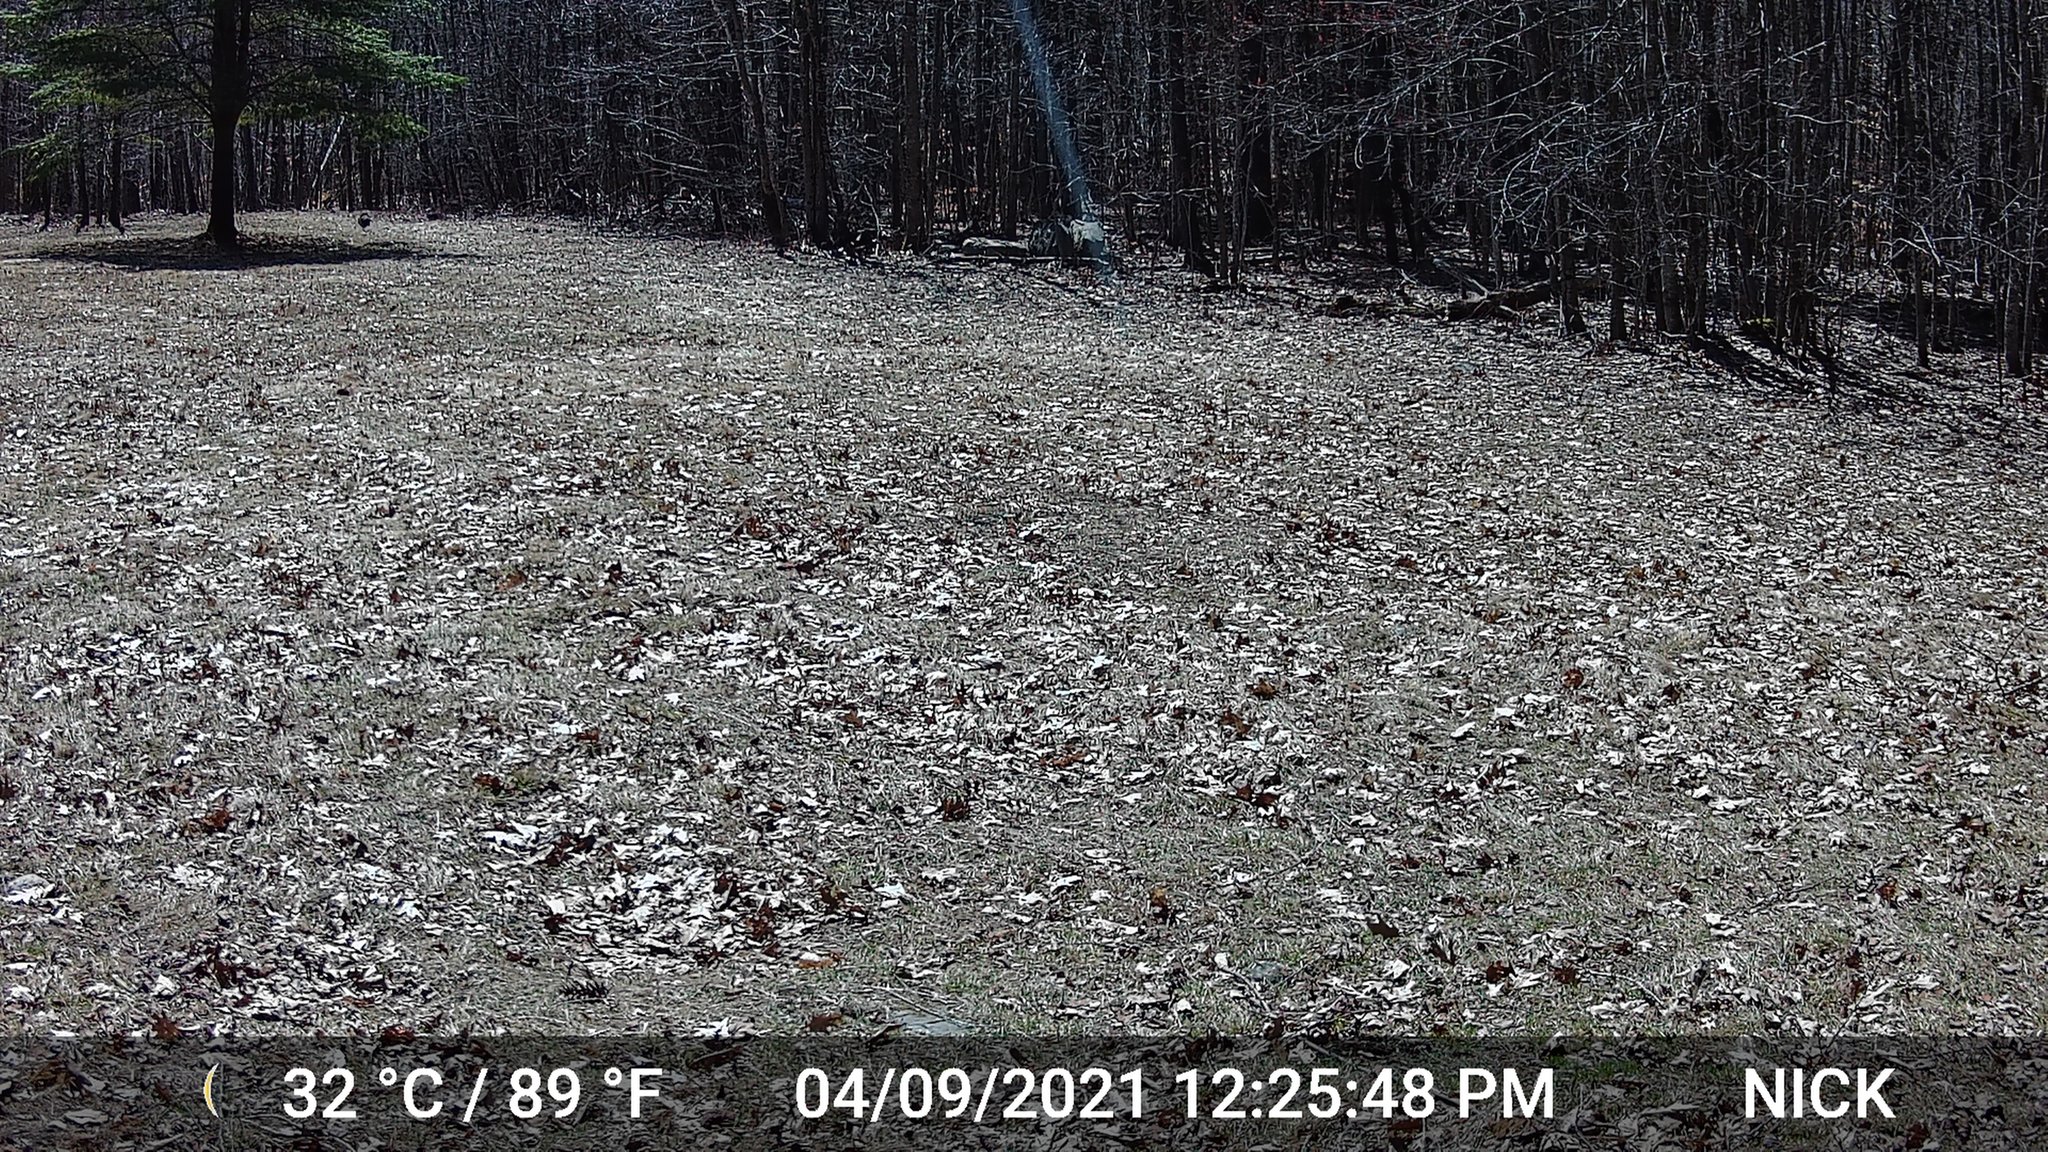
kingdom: Animalia
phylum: Chordata
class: Aves
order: Galliformes
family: Phasianidae
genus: Meleagris
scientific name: Meleagris gallopavo
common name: Wild turkey
